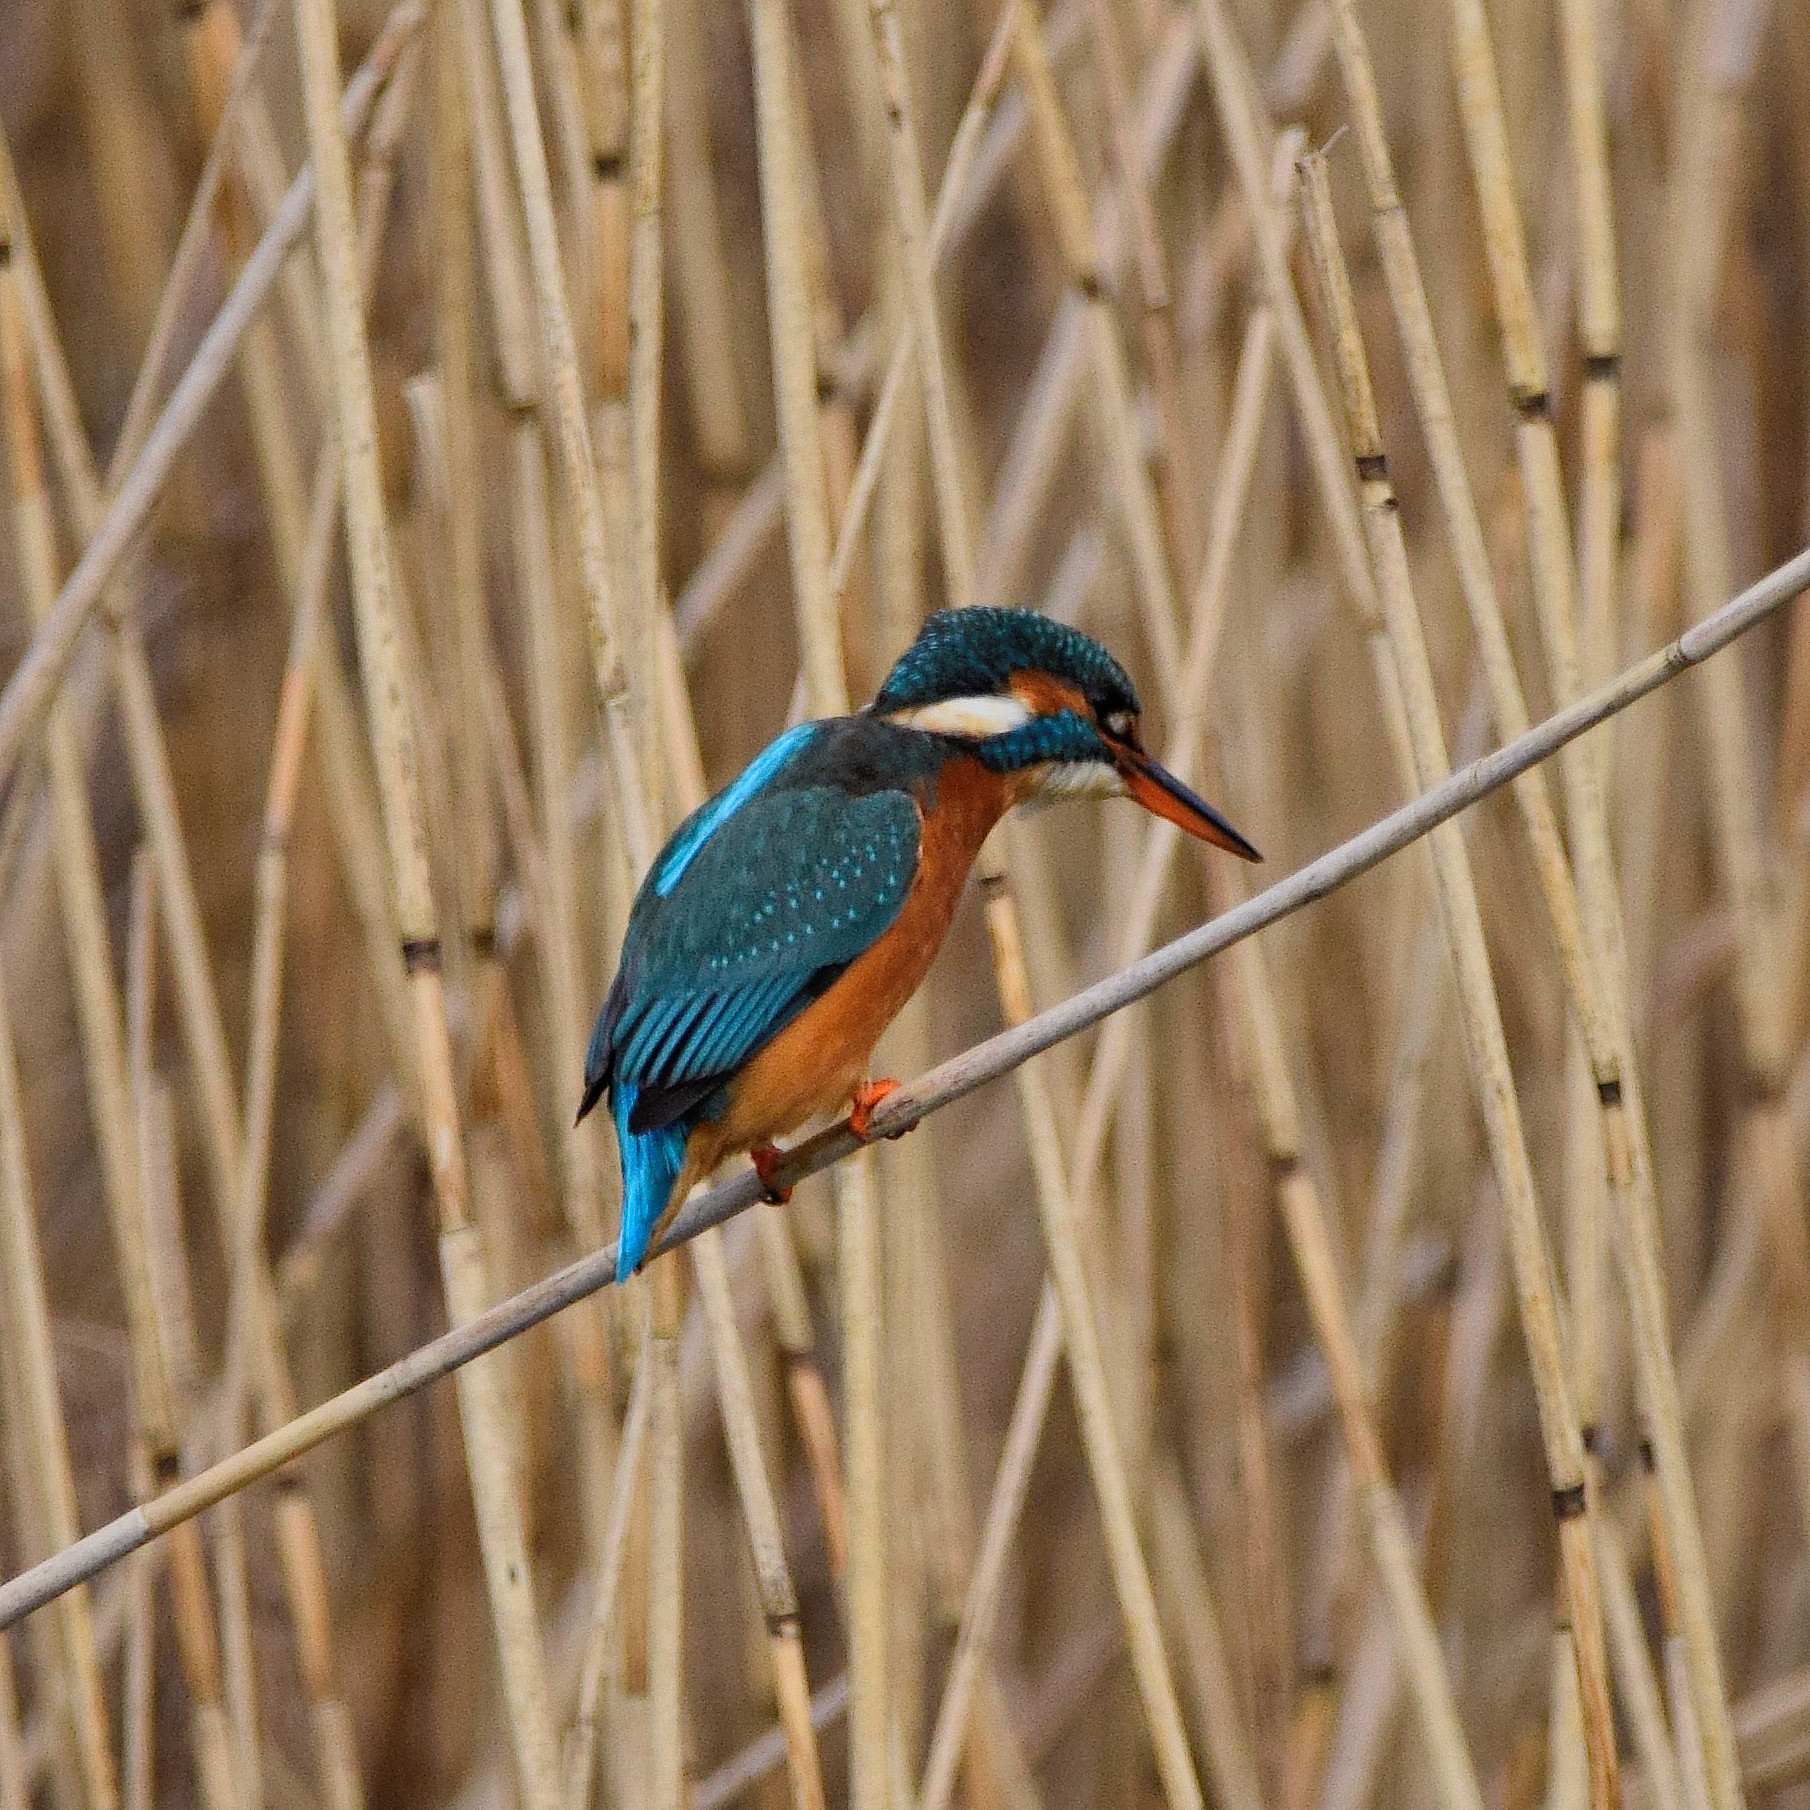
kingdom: Animalia
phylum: Chordata
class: Aves
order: Coraciiformes
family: Alcedinidae
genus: Alcedo
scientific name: Alcedo atthis
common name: Common kingfisher
